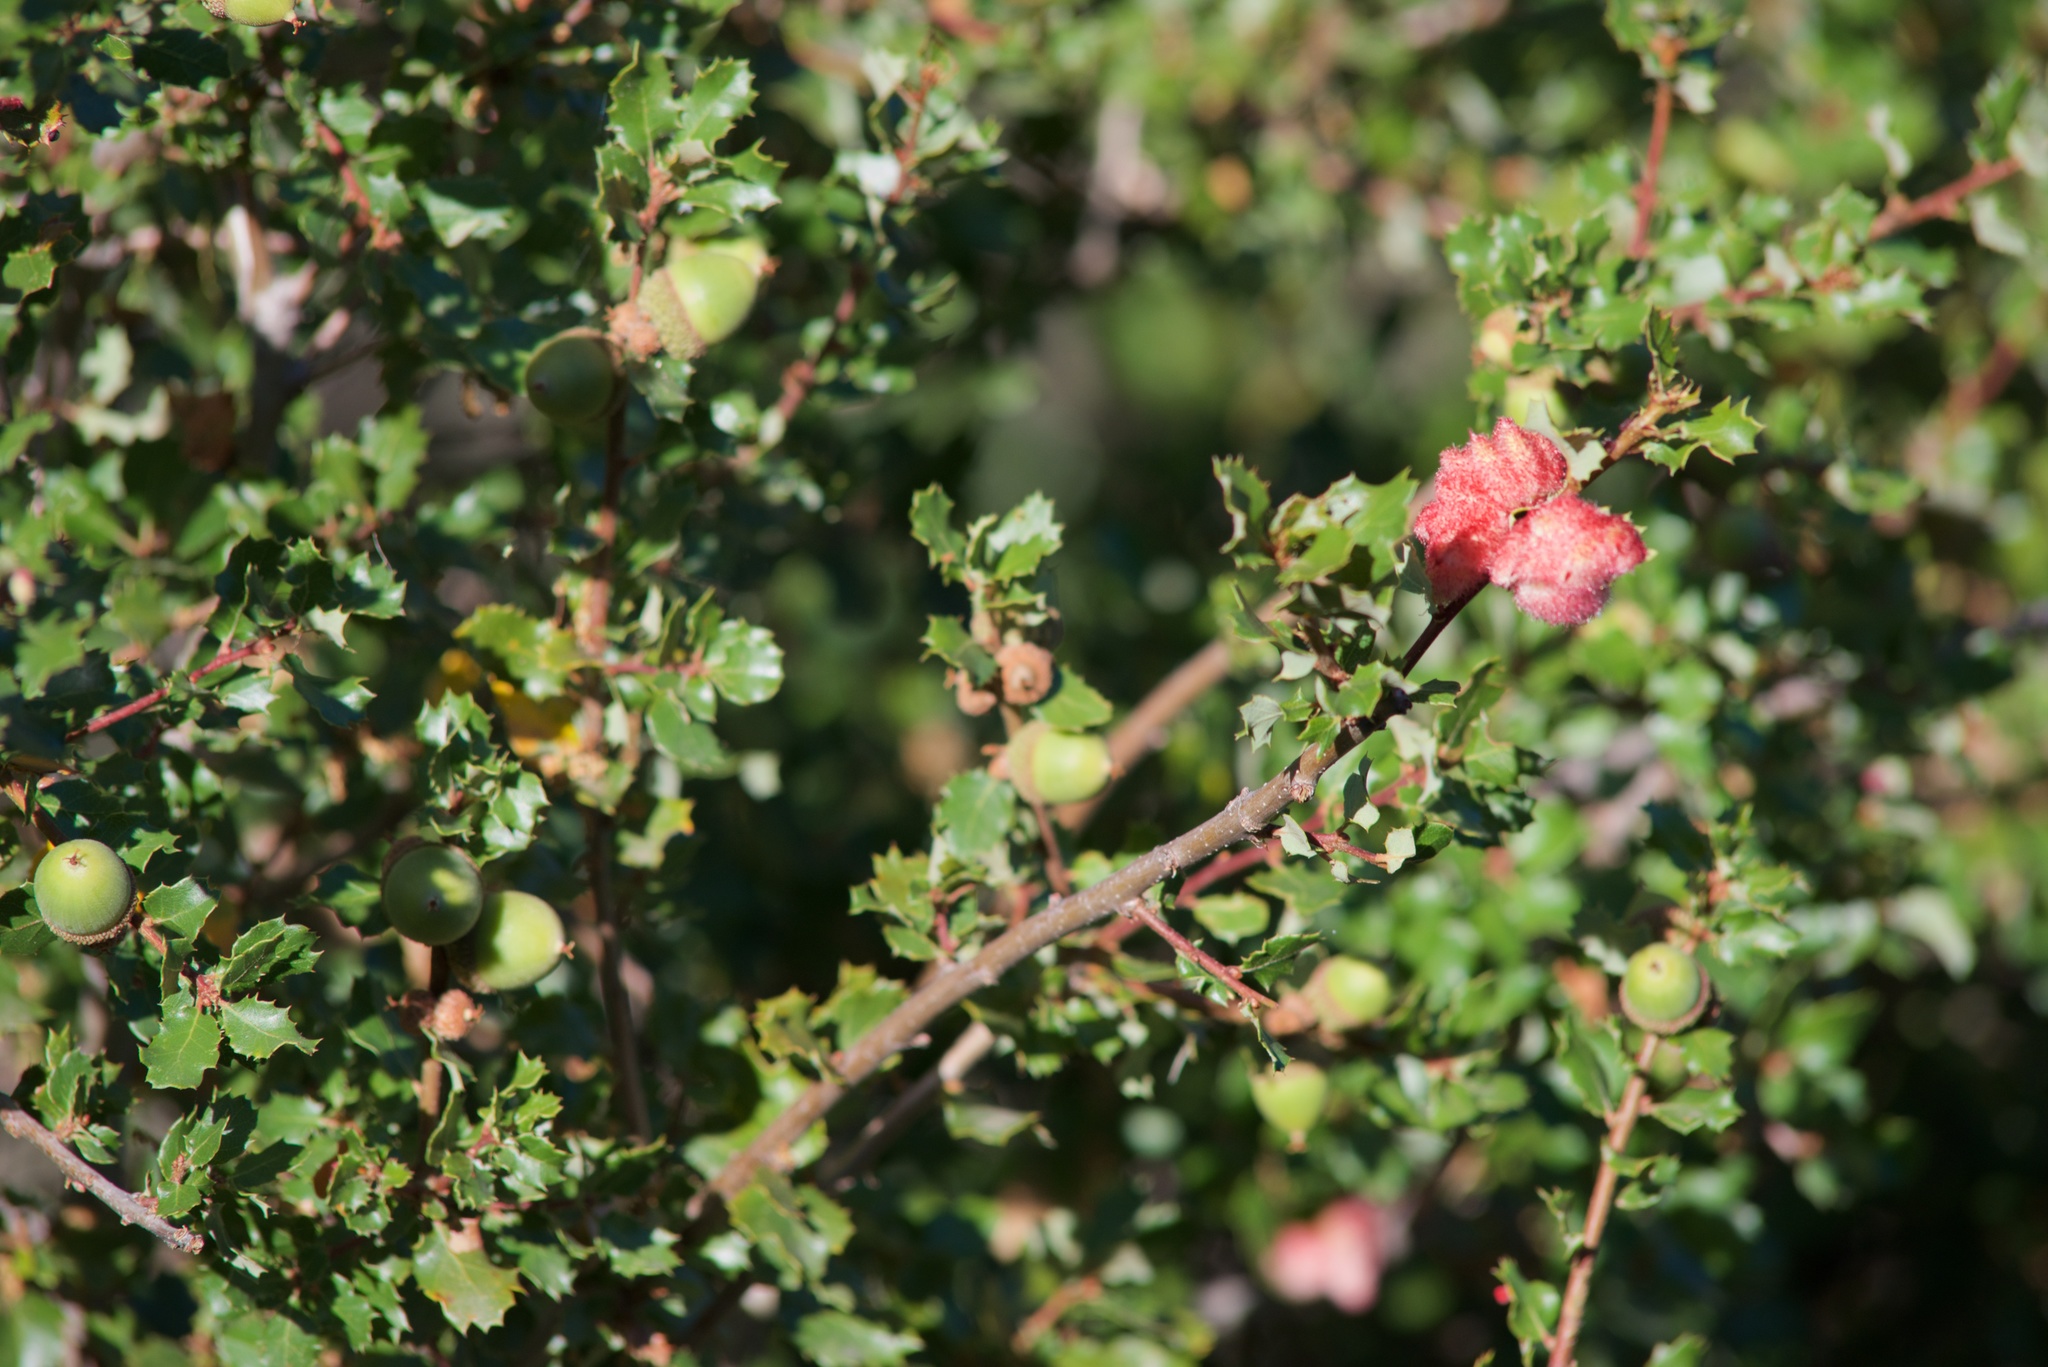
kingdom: Animalia
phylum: Arthropoda
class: Insecta
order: Hymenoptera
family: Cynipidae
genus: Andricus
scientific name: Andricus
